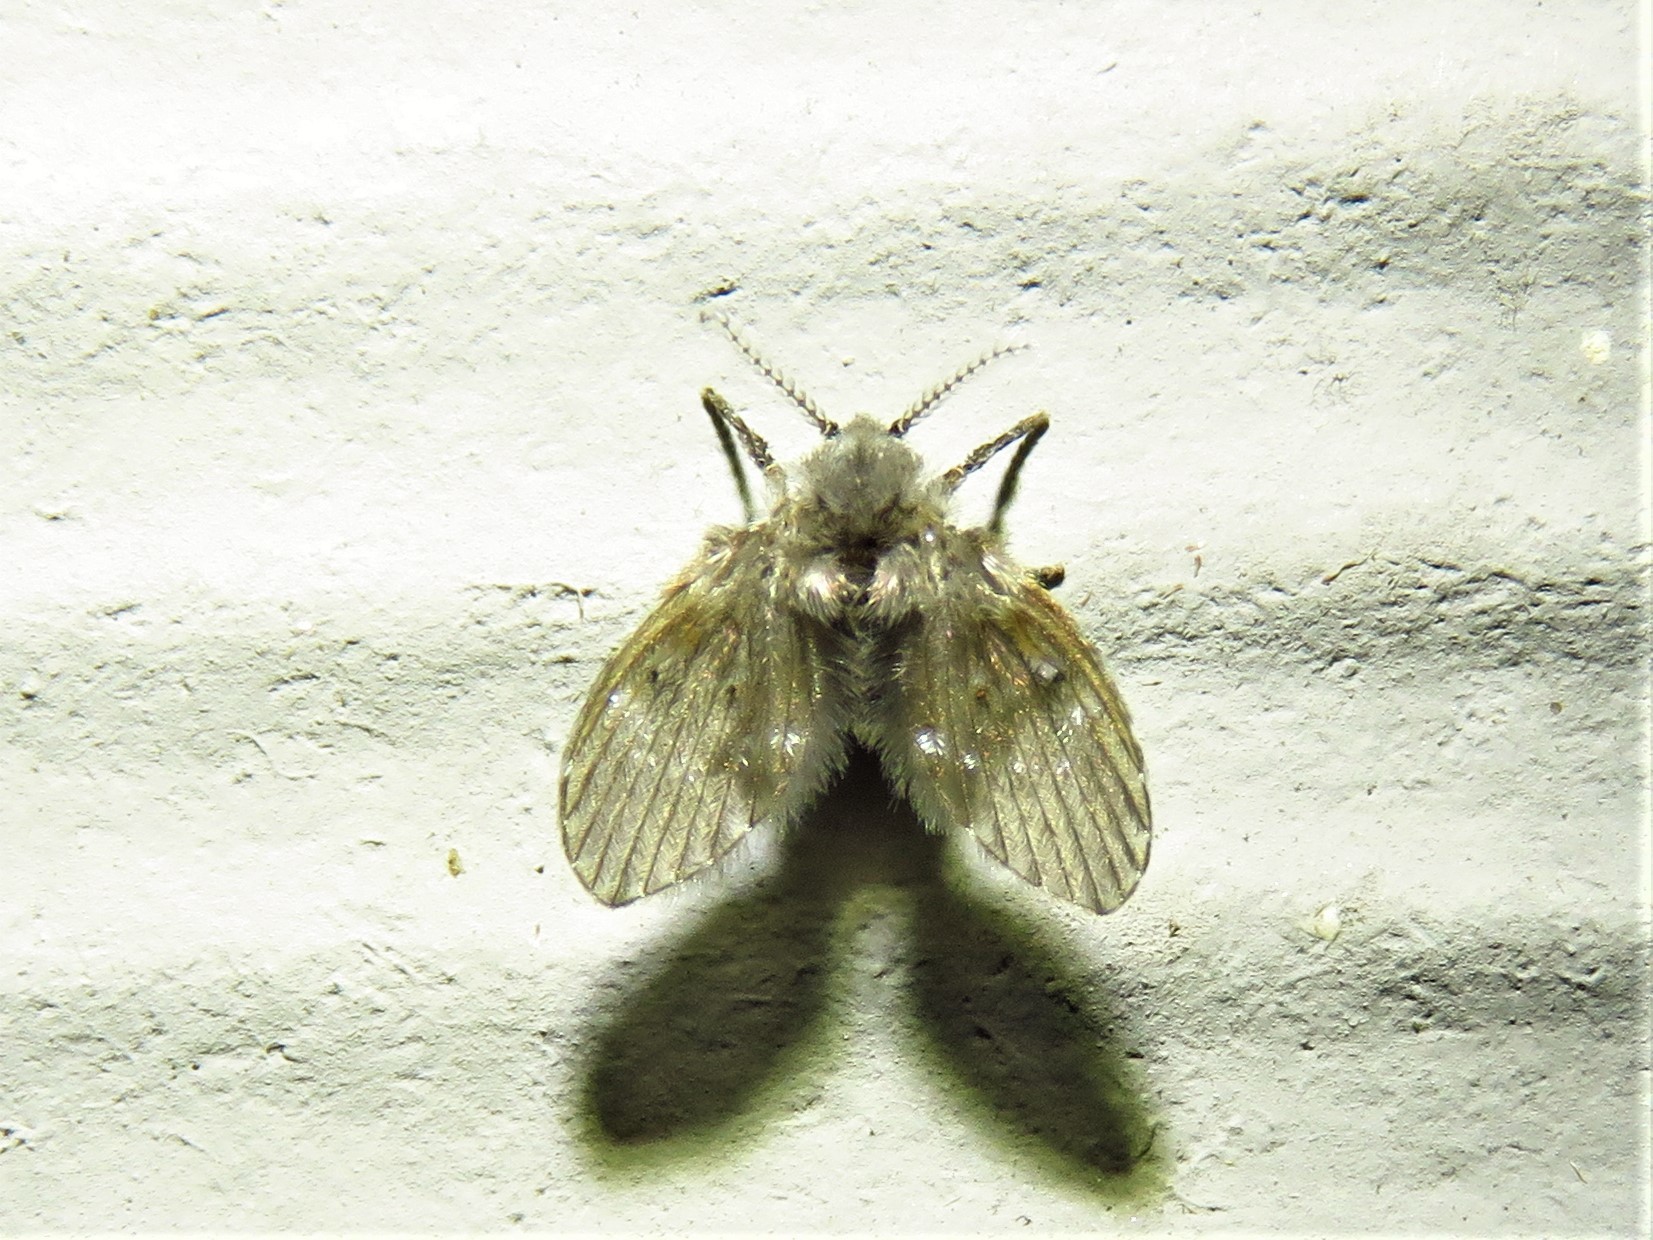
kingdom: Animalia
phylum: Arthropoda
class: Insecta
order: Diptera
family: Psychodidae
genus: Clogmia
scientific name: Clogmia albipunctatus
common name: White-spotted moth fly
